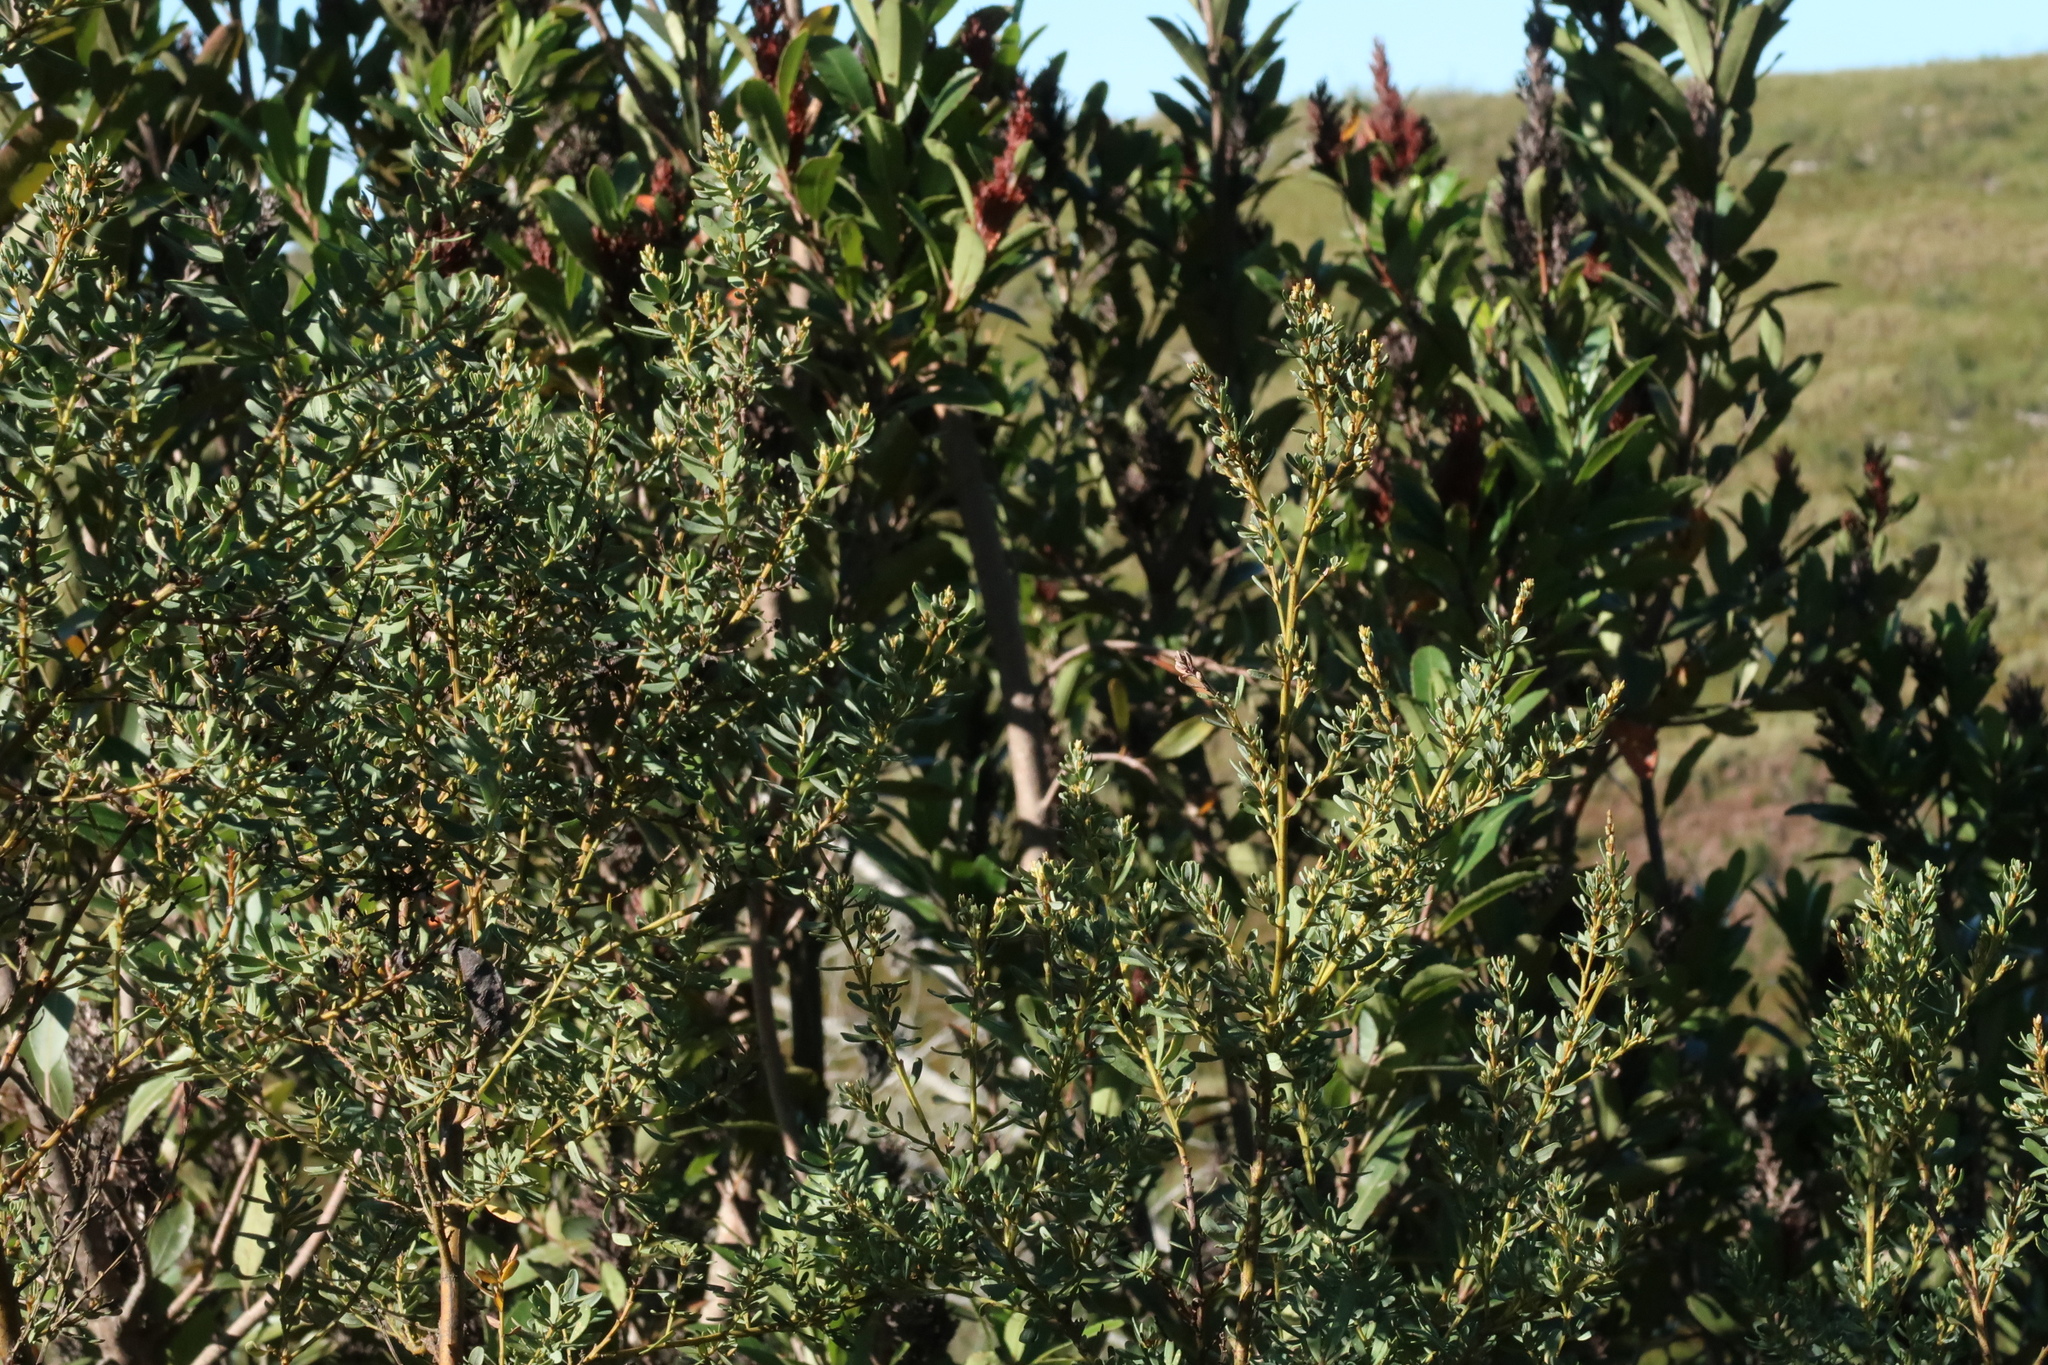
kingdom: Plantae
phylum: Tracheophyta
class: Magnoliopsida
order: Sapindales
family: Anacardiaceae
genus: Laurophyllus
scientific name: Laurophyllus capensis
